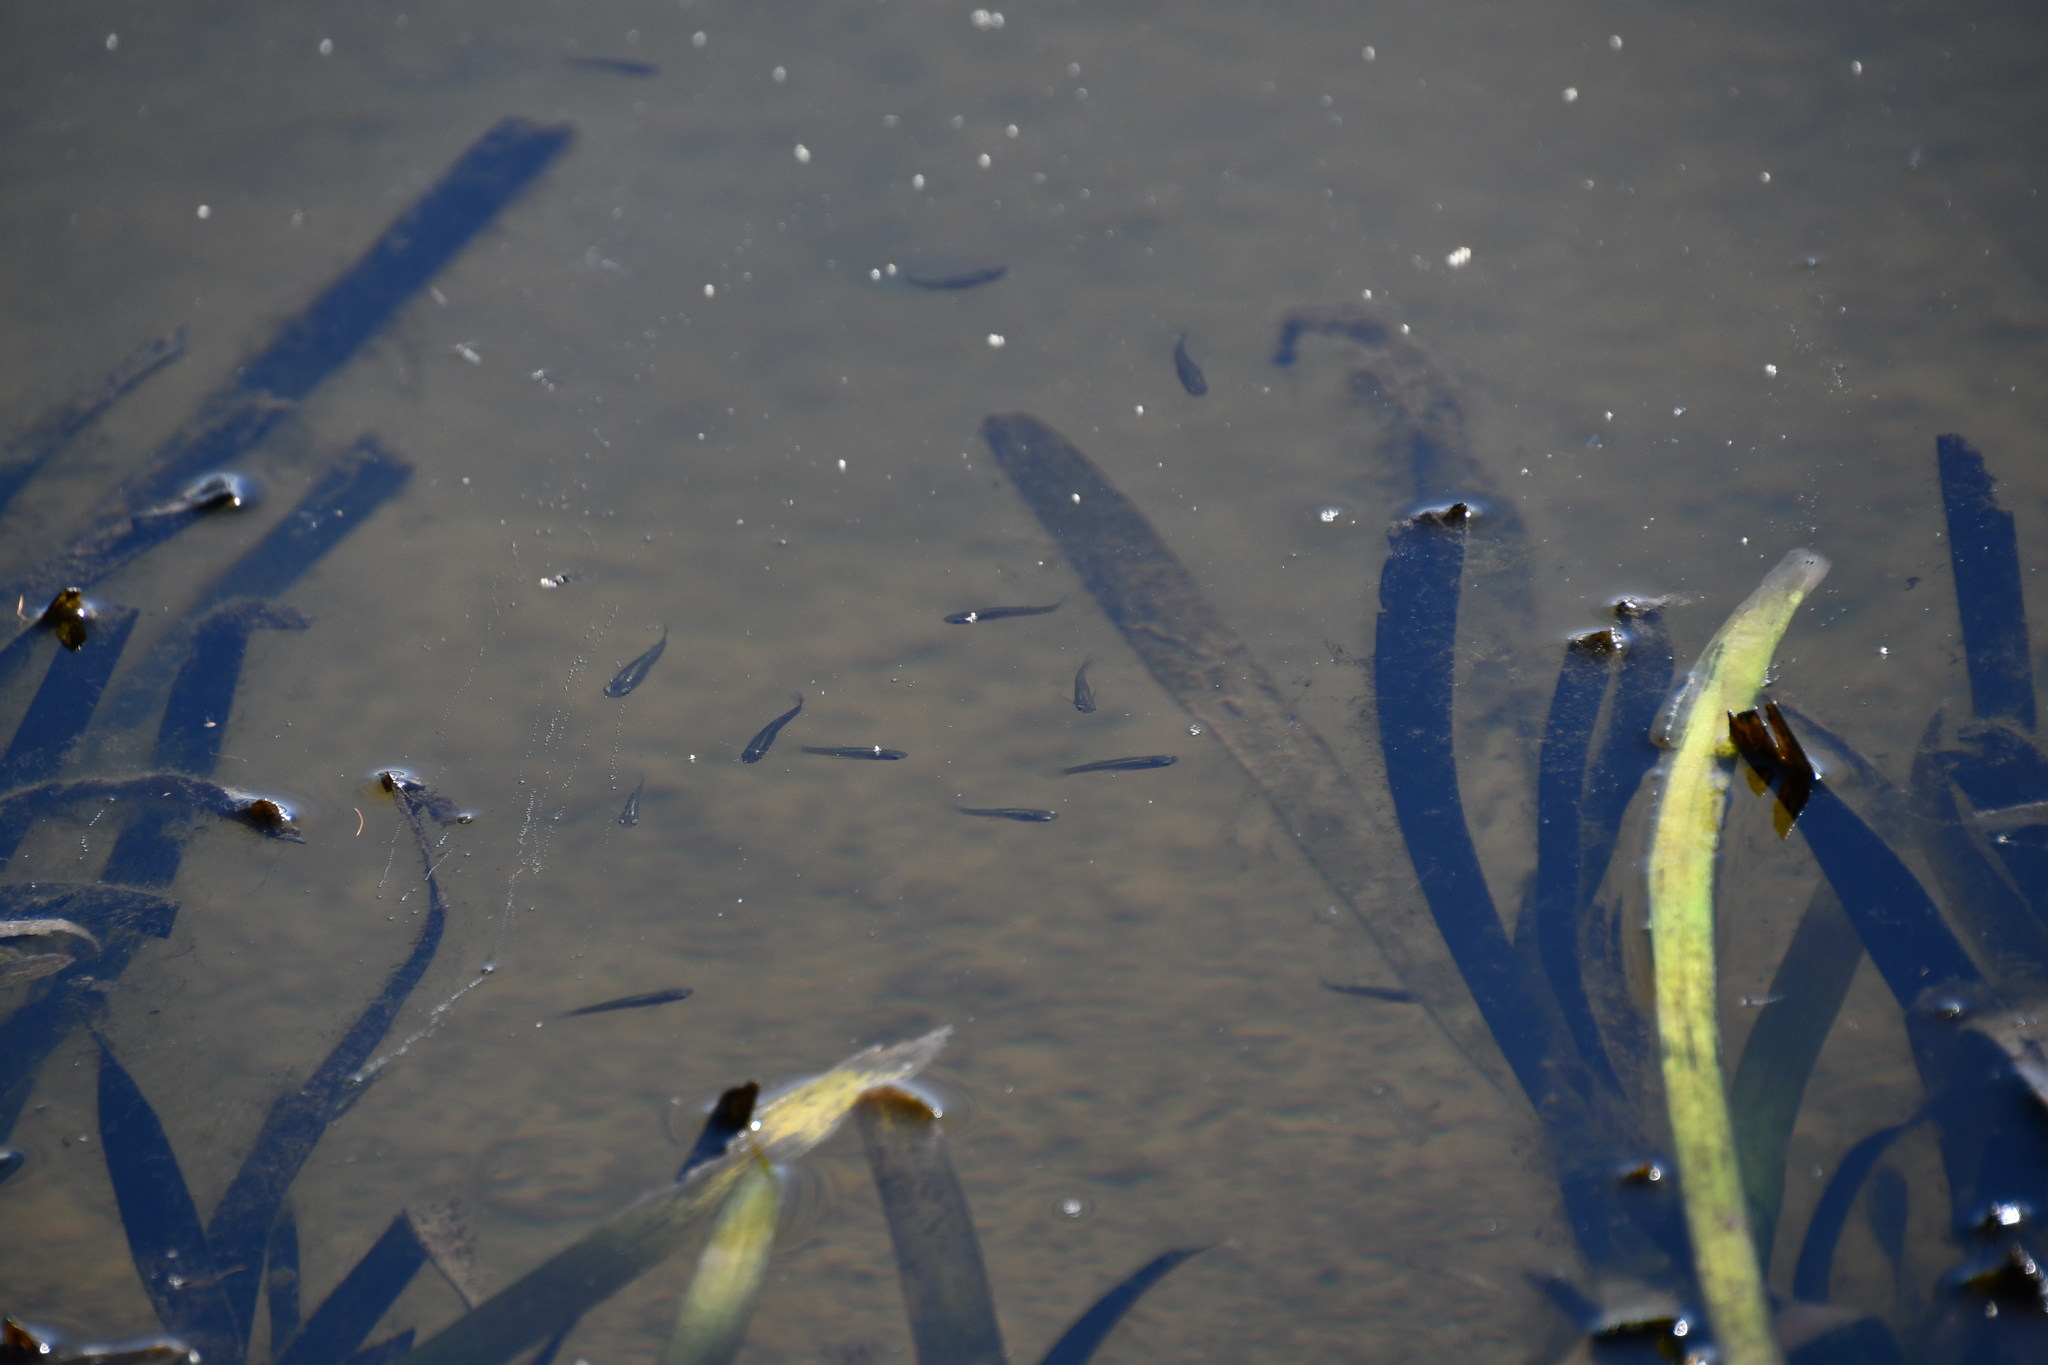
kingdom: Animalia
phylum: Chordata
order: Cyprinodontiformes
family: Poeciliidae
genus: Gambusia
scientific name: Gambusia holbrooki
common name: Eastern mosquitofish
